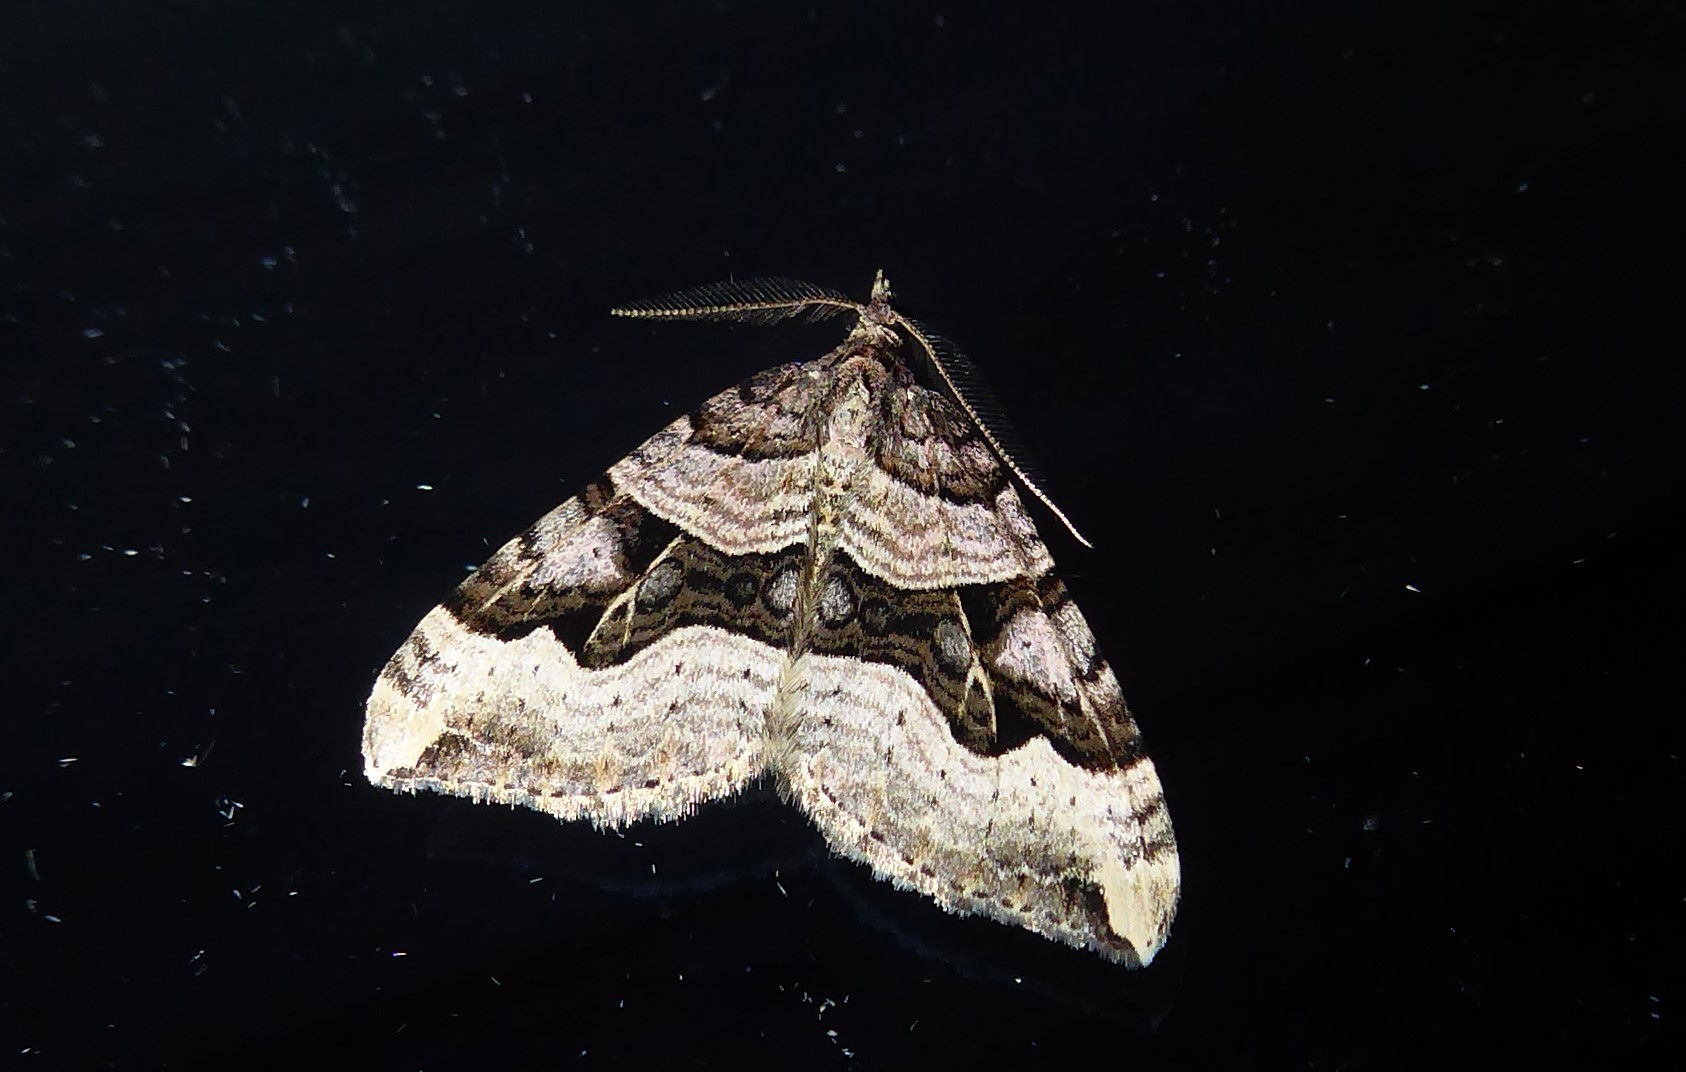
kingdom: Animalia
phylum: Arthropoda
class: Insecta
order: Lepidoptera
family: Geometridae
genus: Xanthorhoe
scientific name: Xanthorhoe semifissata
